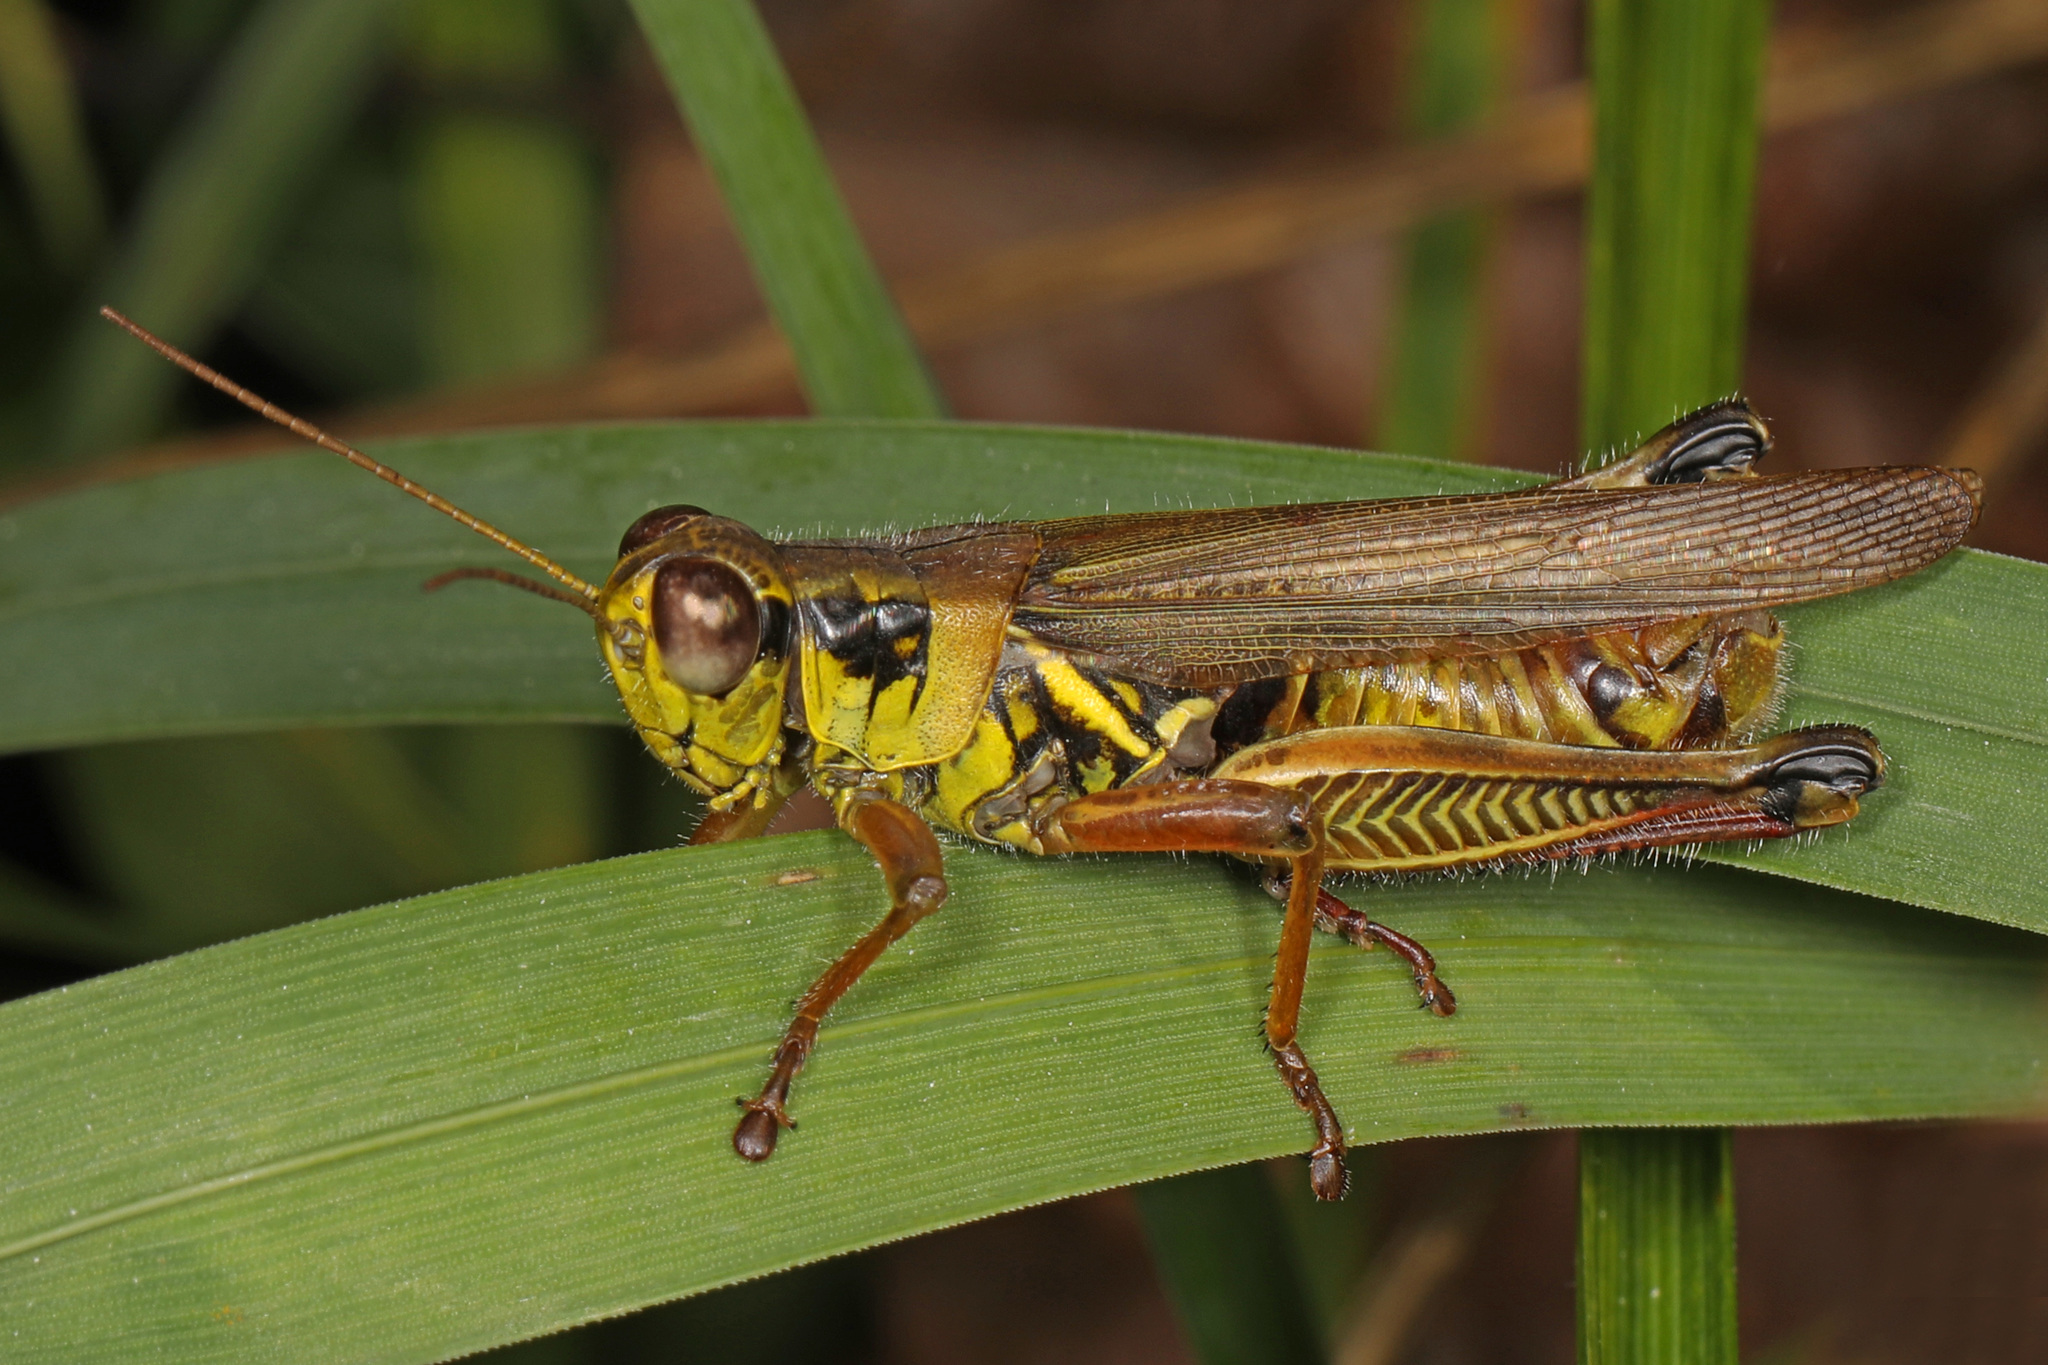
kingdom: Animalia
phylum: Arthropoda
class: Insecta
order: Orthoptera
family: Acrididae
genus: Melanoplus
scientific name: Melanoplus femurrubrum
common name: Red-legged grasshopper
